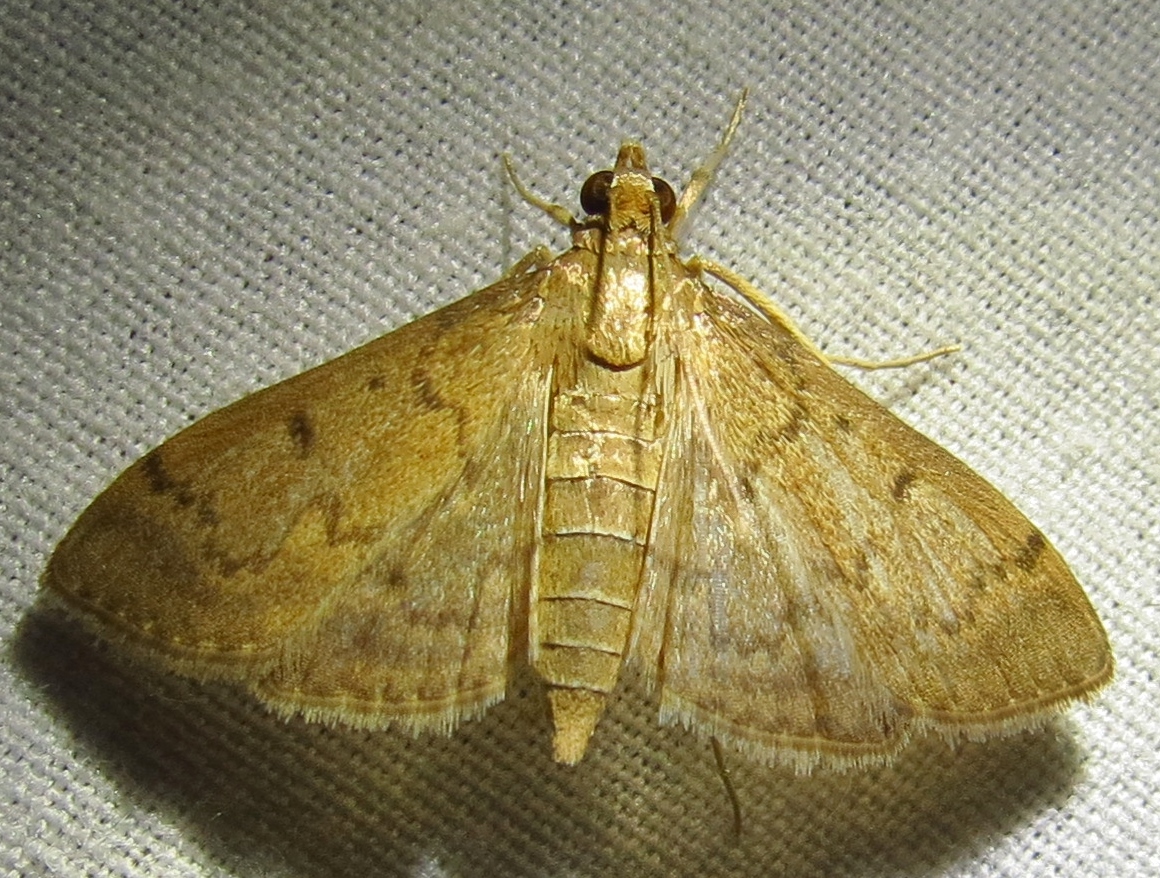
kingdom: Animalia
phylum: Arthropoda
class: Insecta
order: Lepidoptera
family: Crambidae
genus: Herpetogramma
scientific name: Herpetogramma phaeopteralis
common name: Dusky herpetogramma moth
